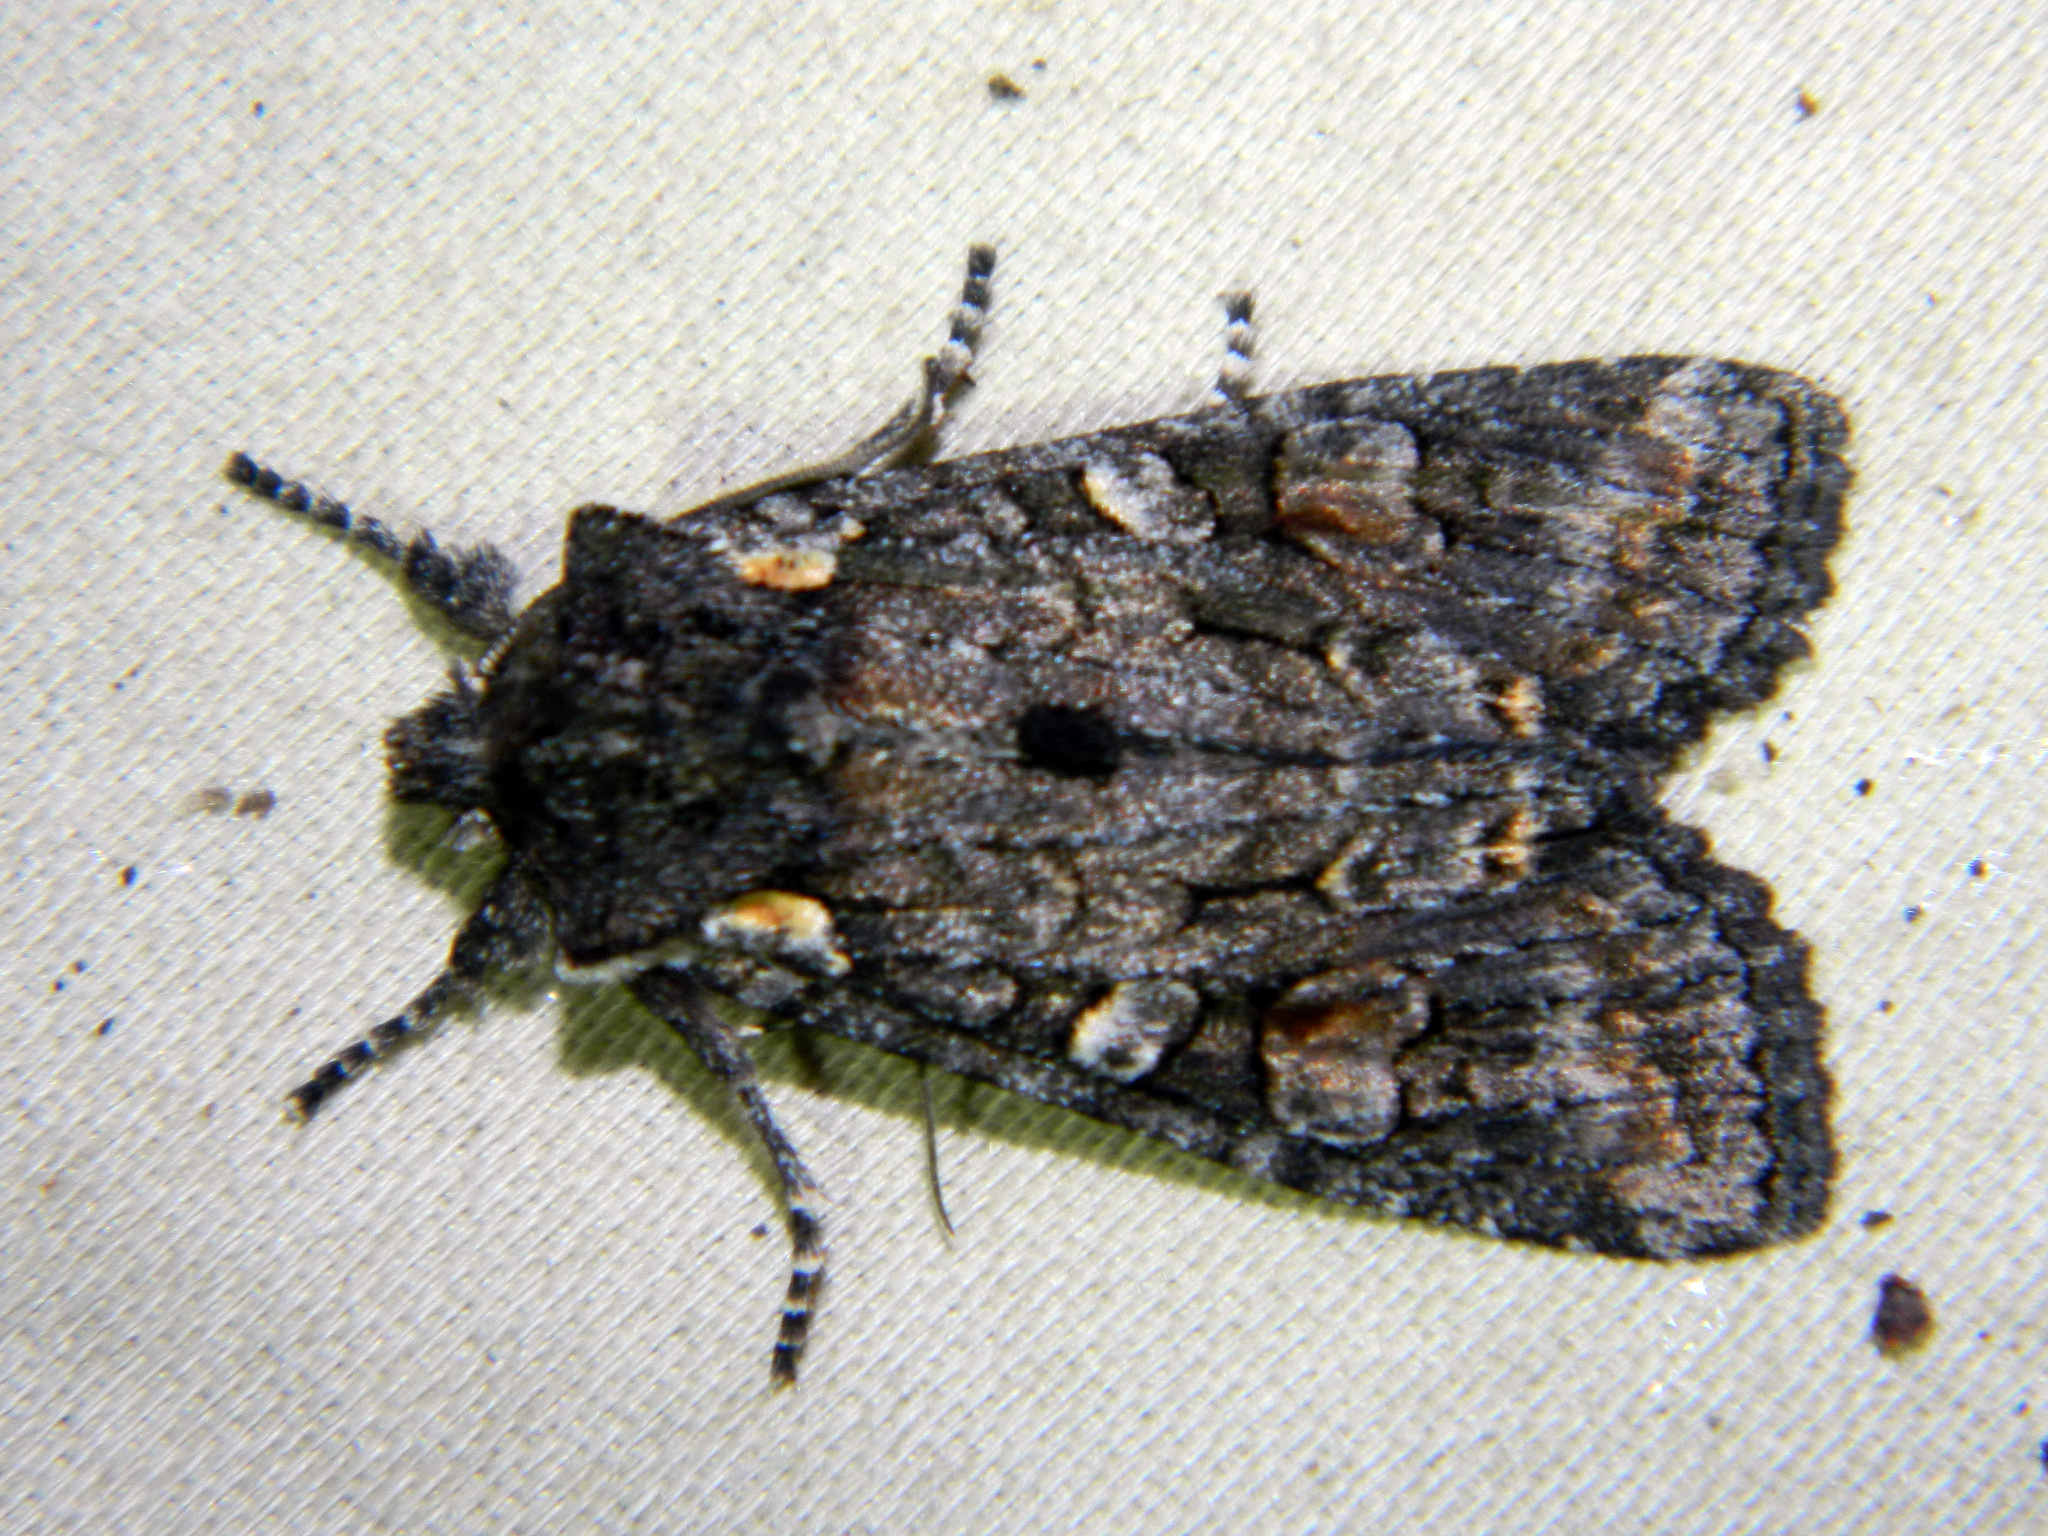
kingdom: Animalia
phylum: Arthropoda
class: Insecta
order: Lepidoptera
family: Noctuidae
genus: Lithophane
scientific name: Lithophane pexata
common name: Plush-naped pinion moth
